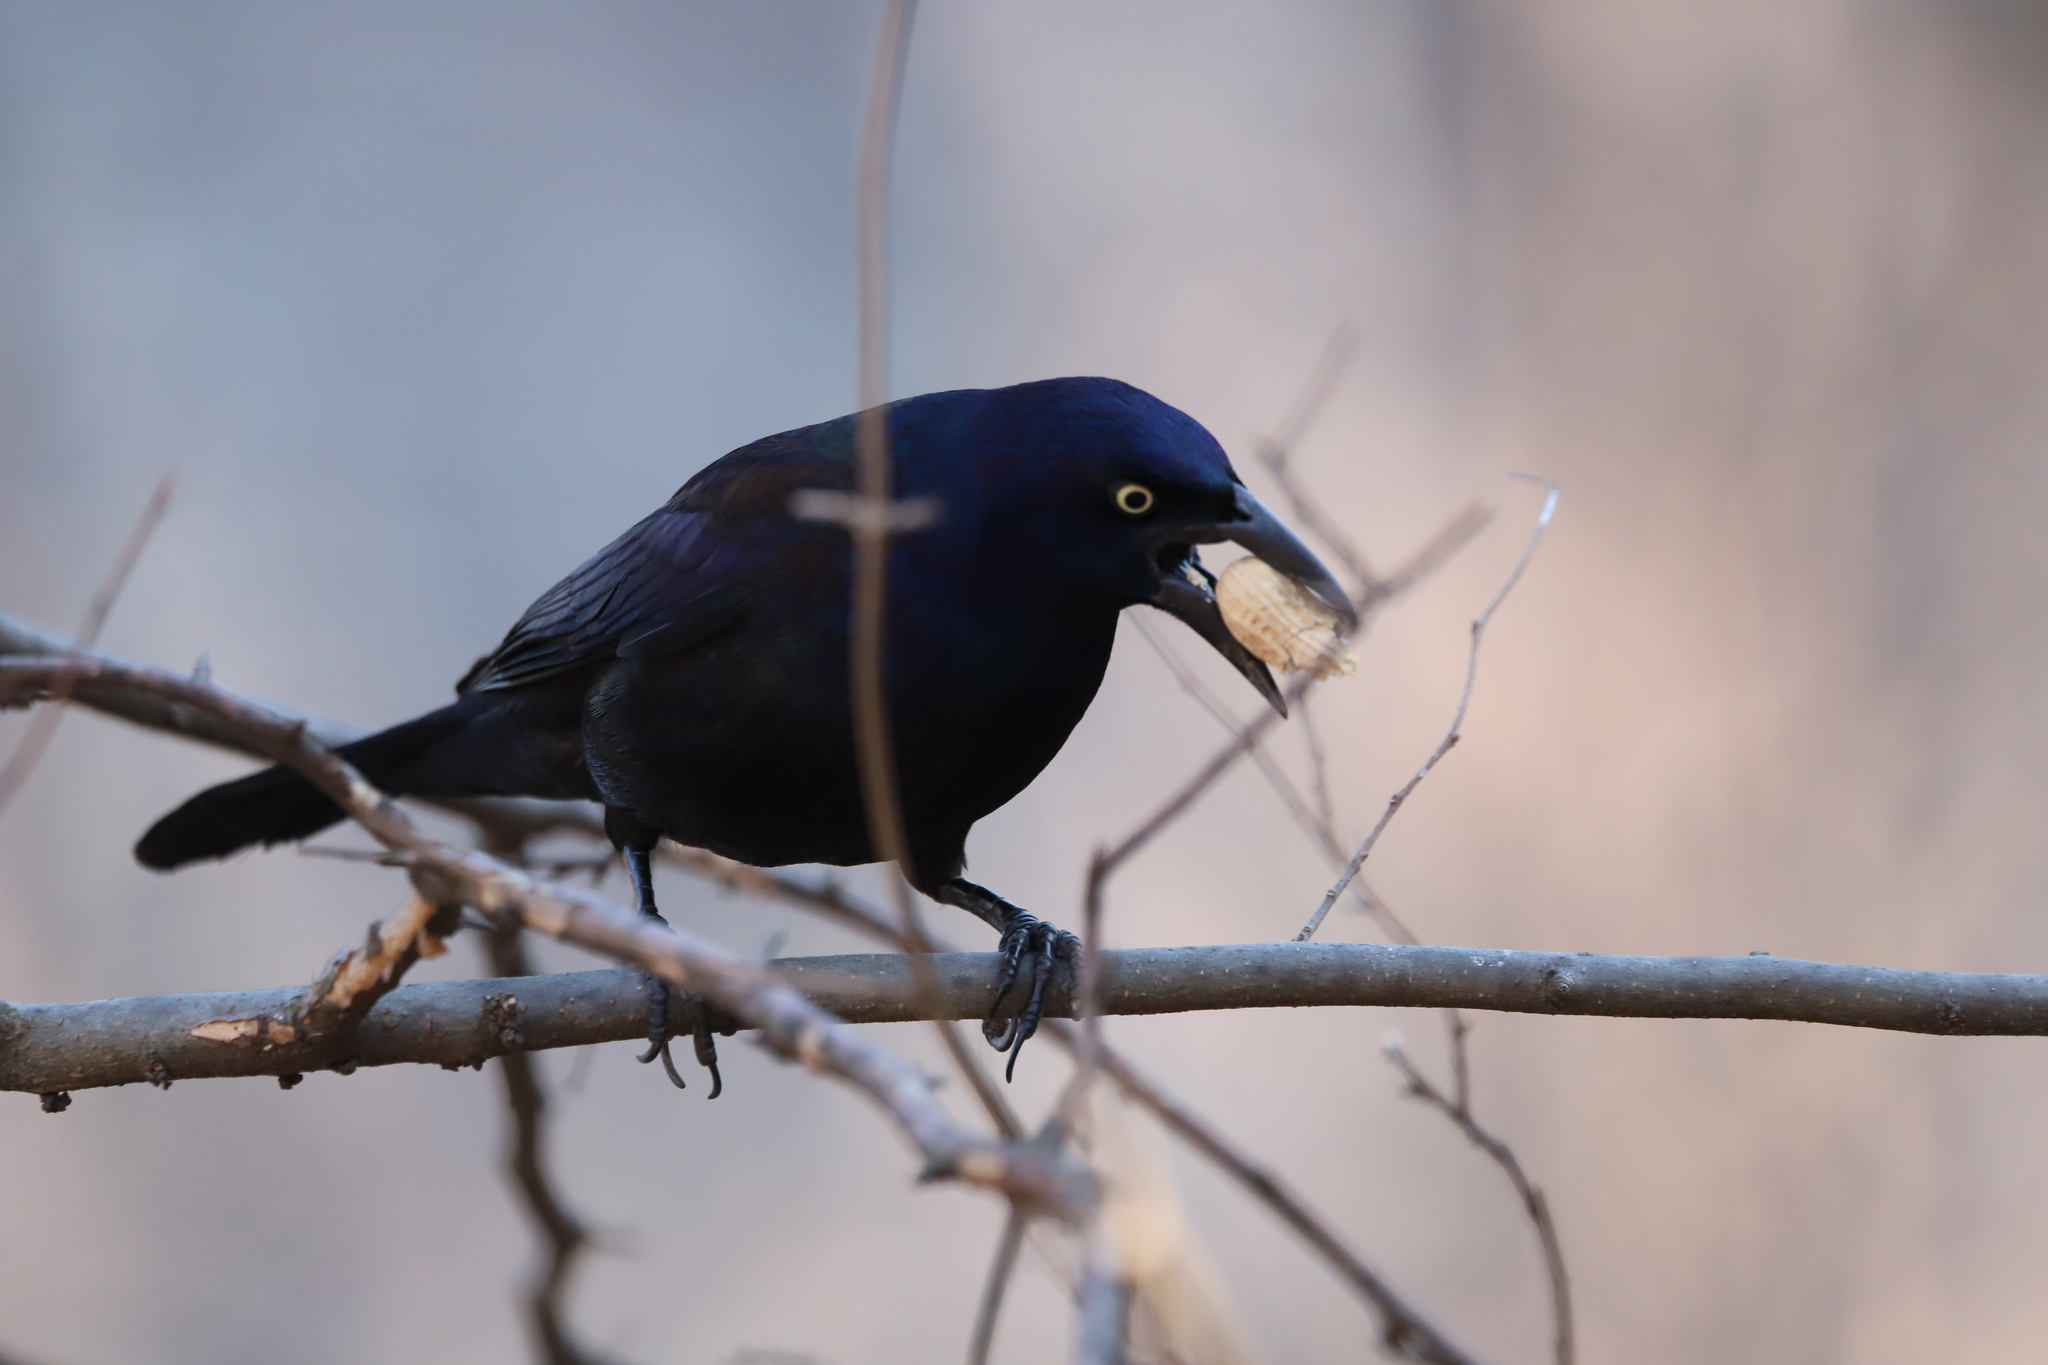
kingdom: Animalia
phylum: Chordata
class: Aves
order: Passeriformes
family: Icteridae
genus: Quiscalus
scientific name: Quiscalus quiscula
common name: Common grackle
